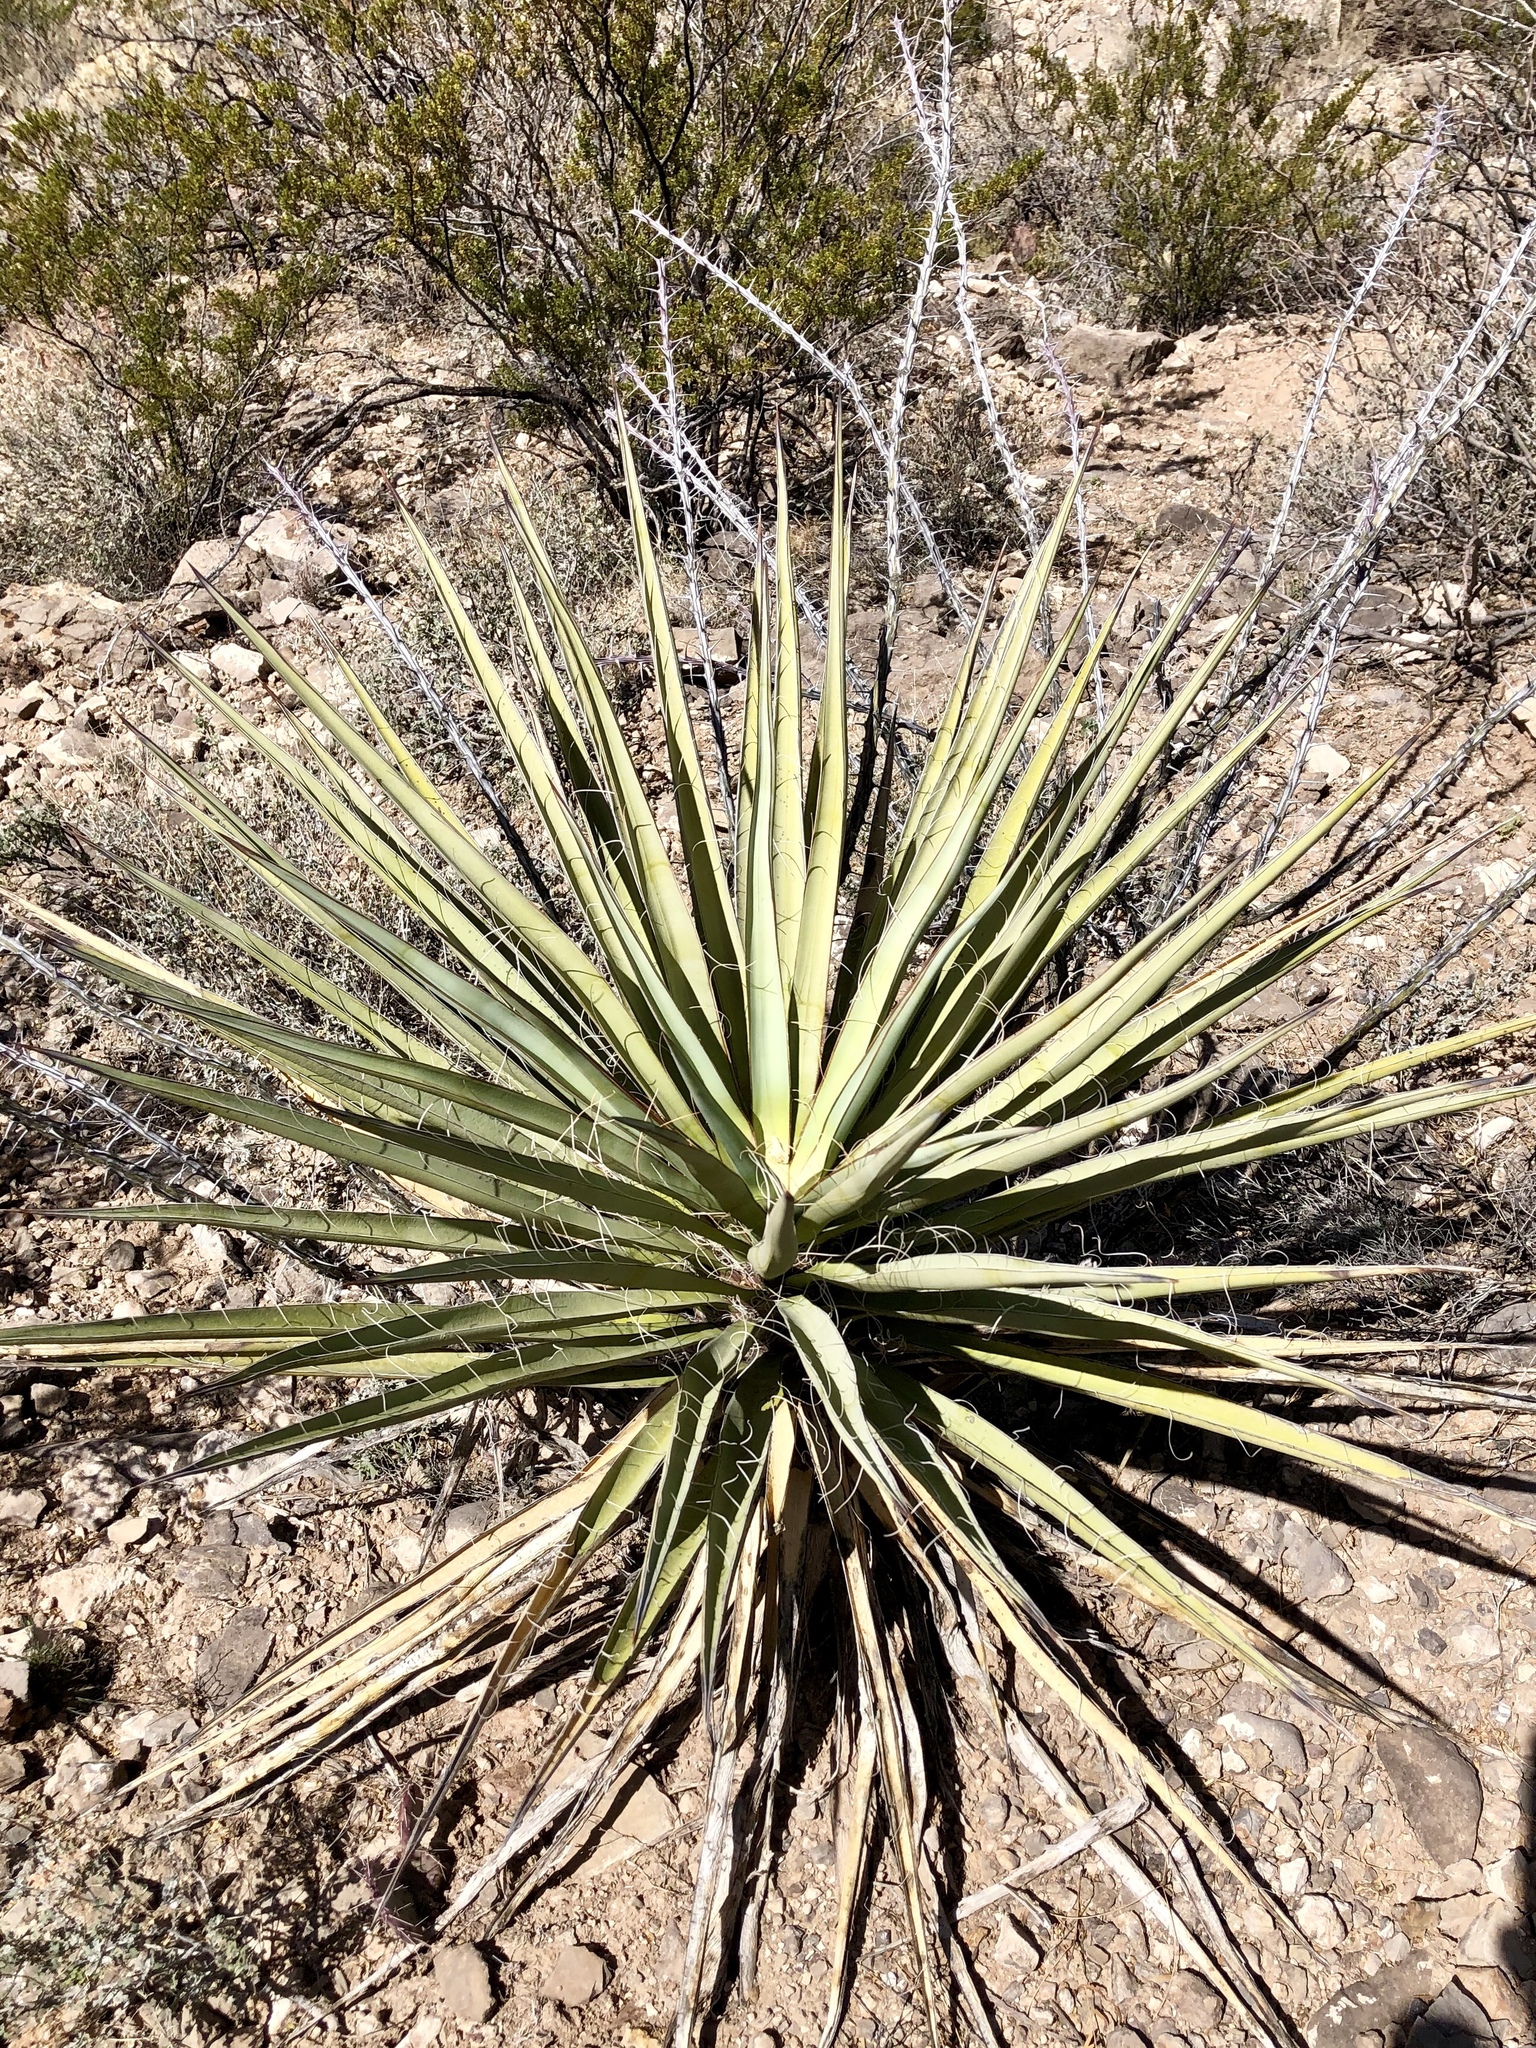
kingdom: Plantae
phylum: Tracheophyta
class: Liliopsida
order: Asparagales
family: Asparagaceae
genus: Yucca
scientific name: Yucca treculiana
